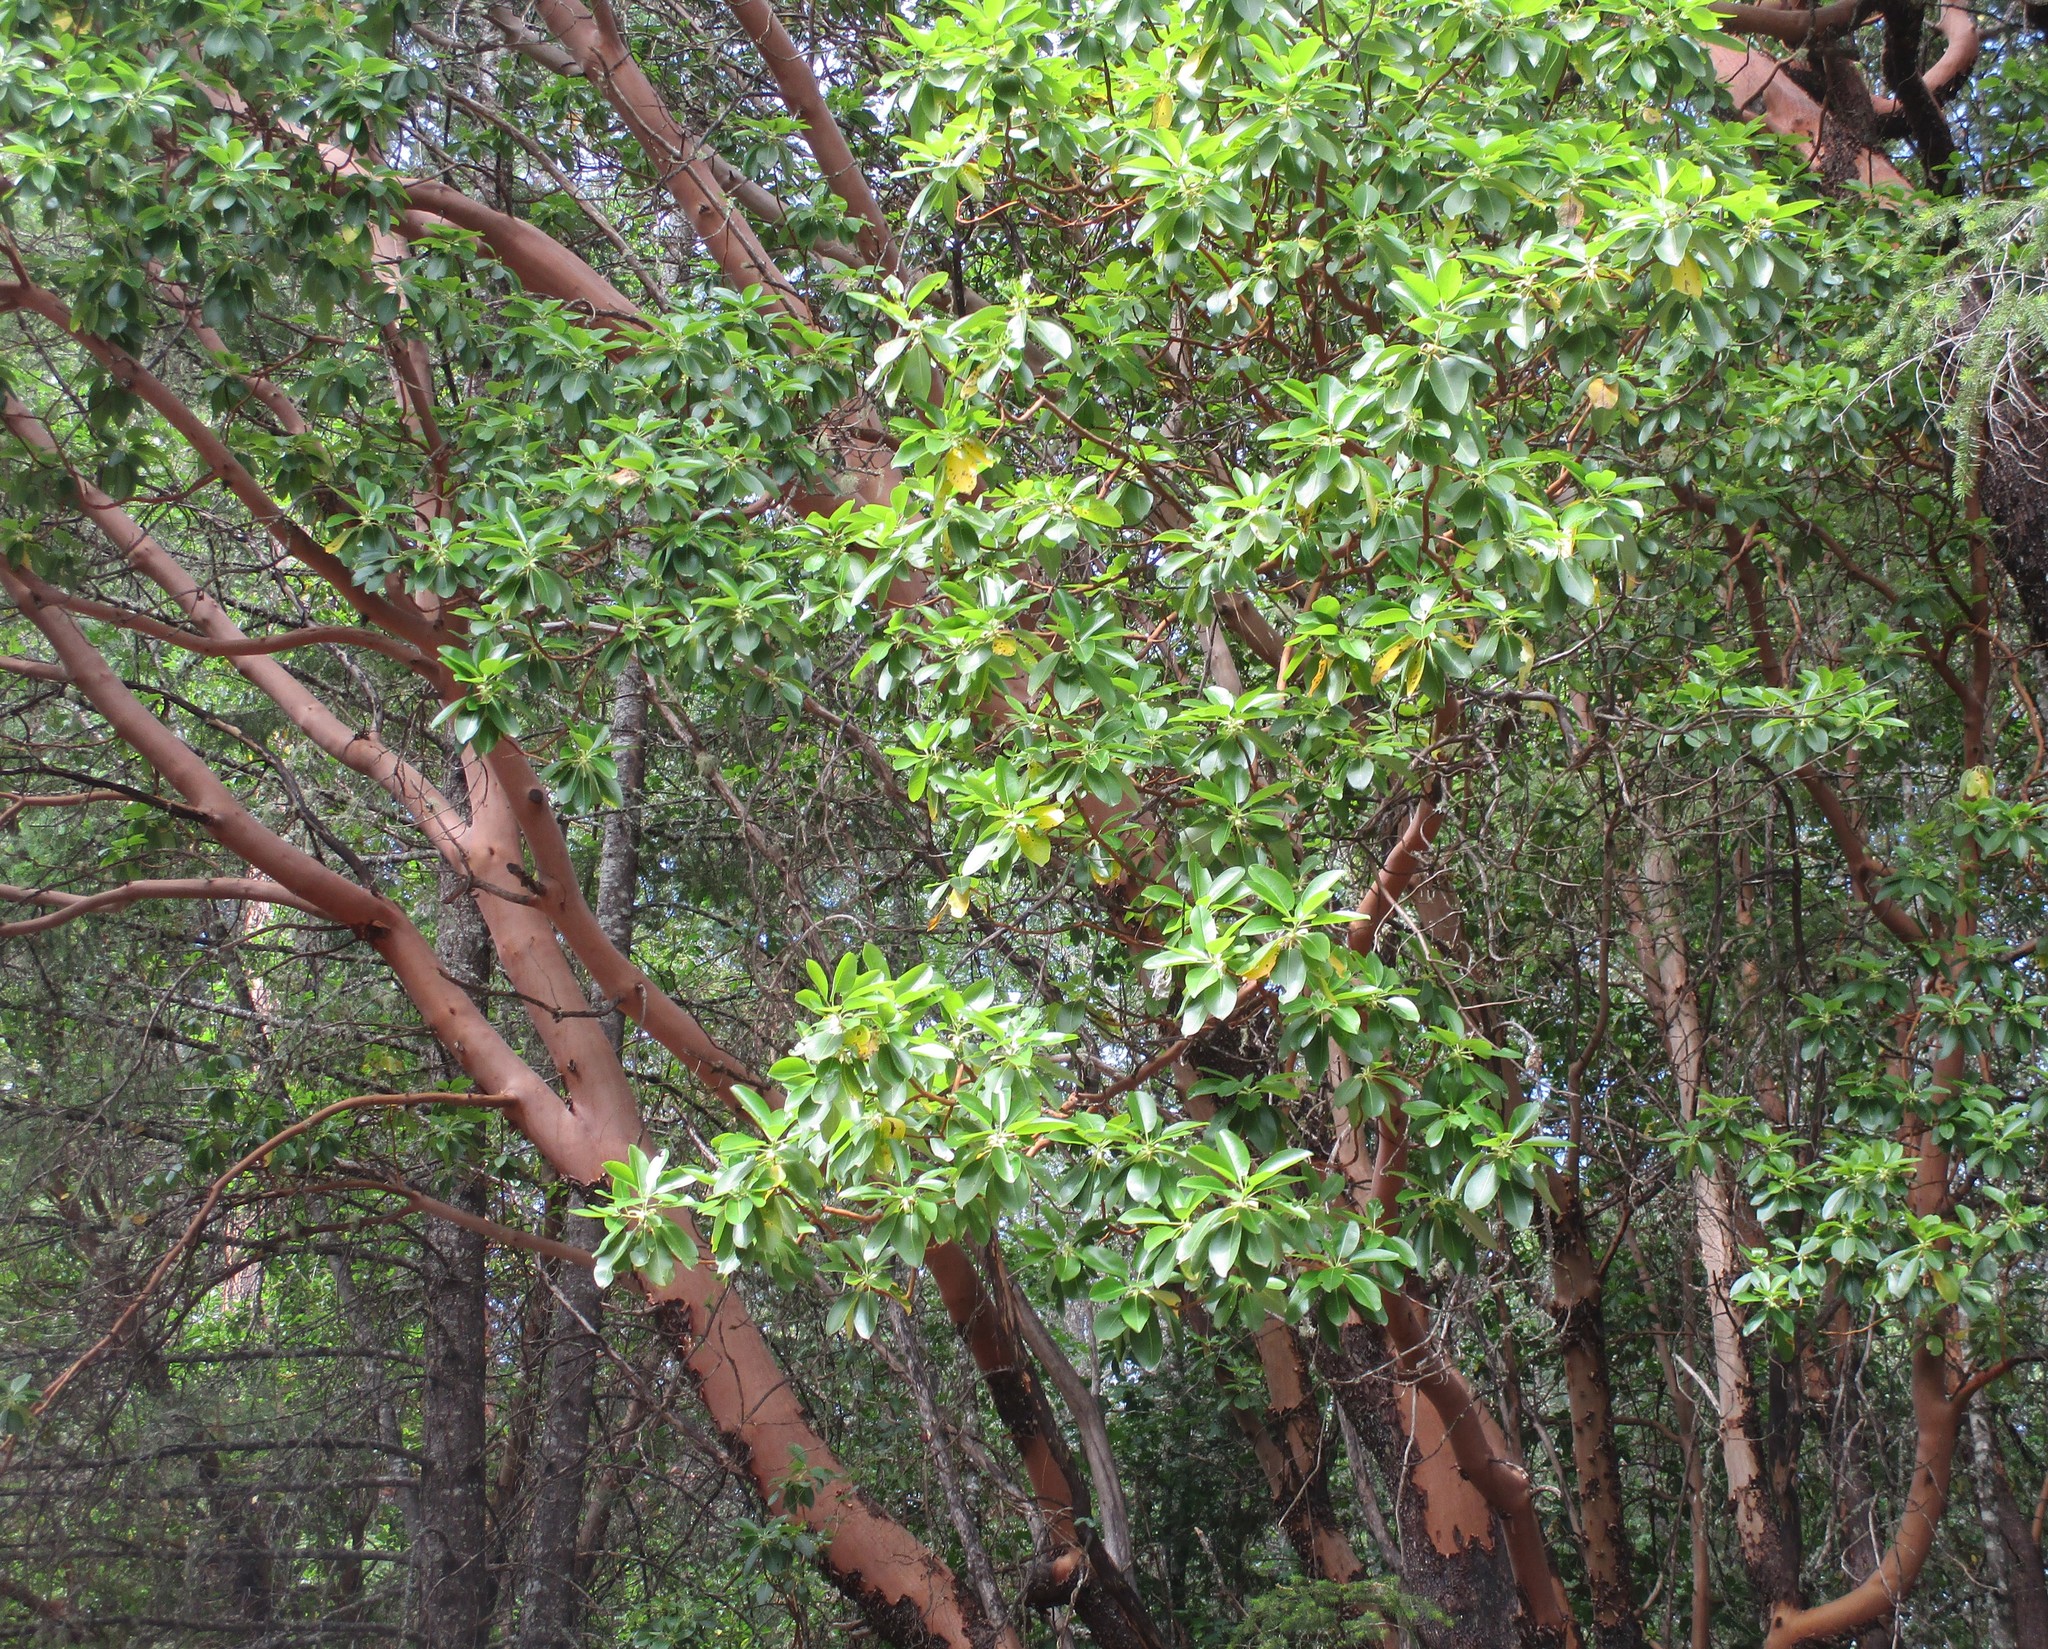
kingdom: Plantae
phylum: Tracheophyta
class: Magnoliopsida
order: Ericales
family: Ericaceae
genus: Arbutus
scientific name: Arbutus menziesii
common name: Pacific madrone
